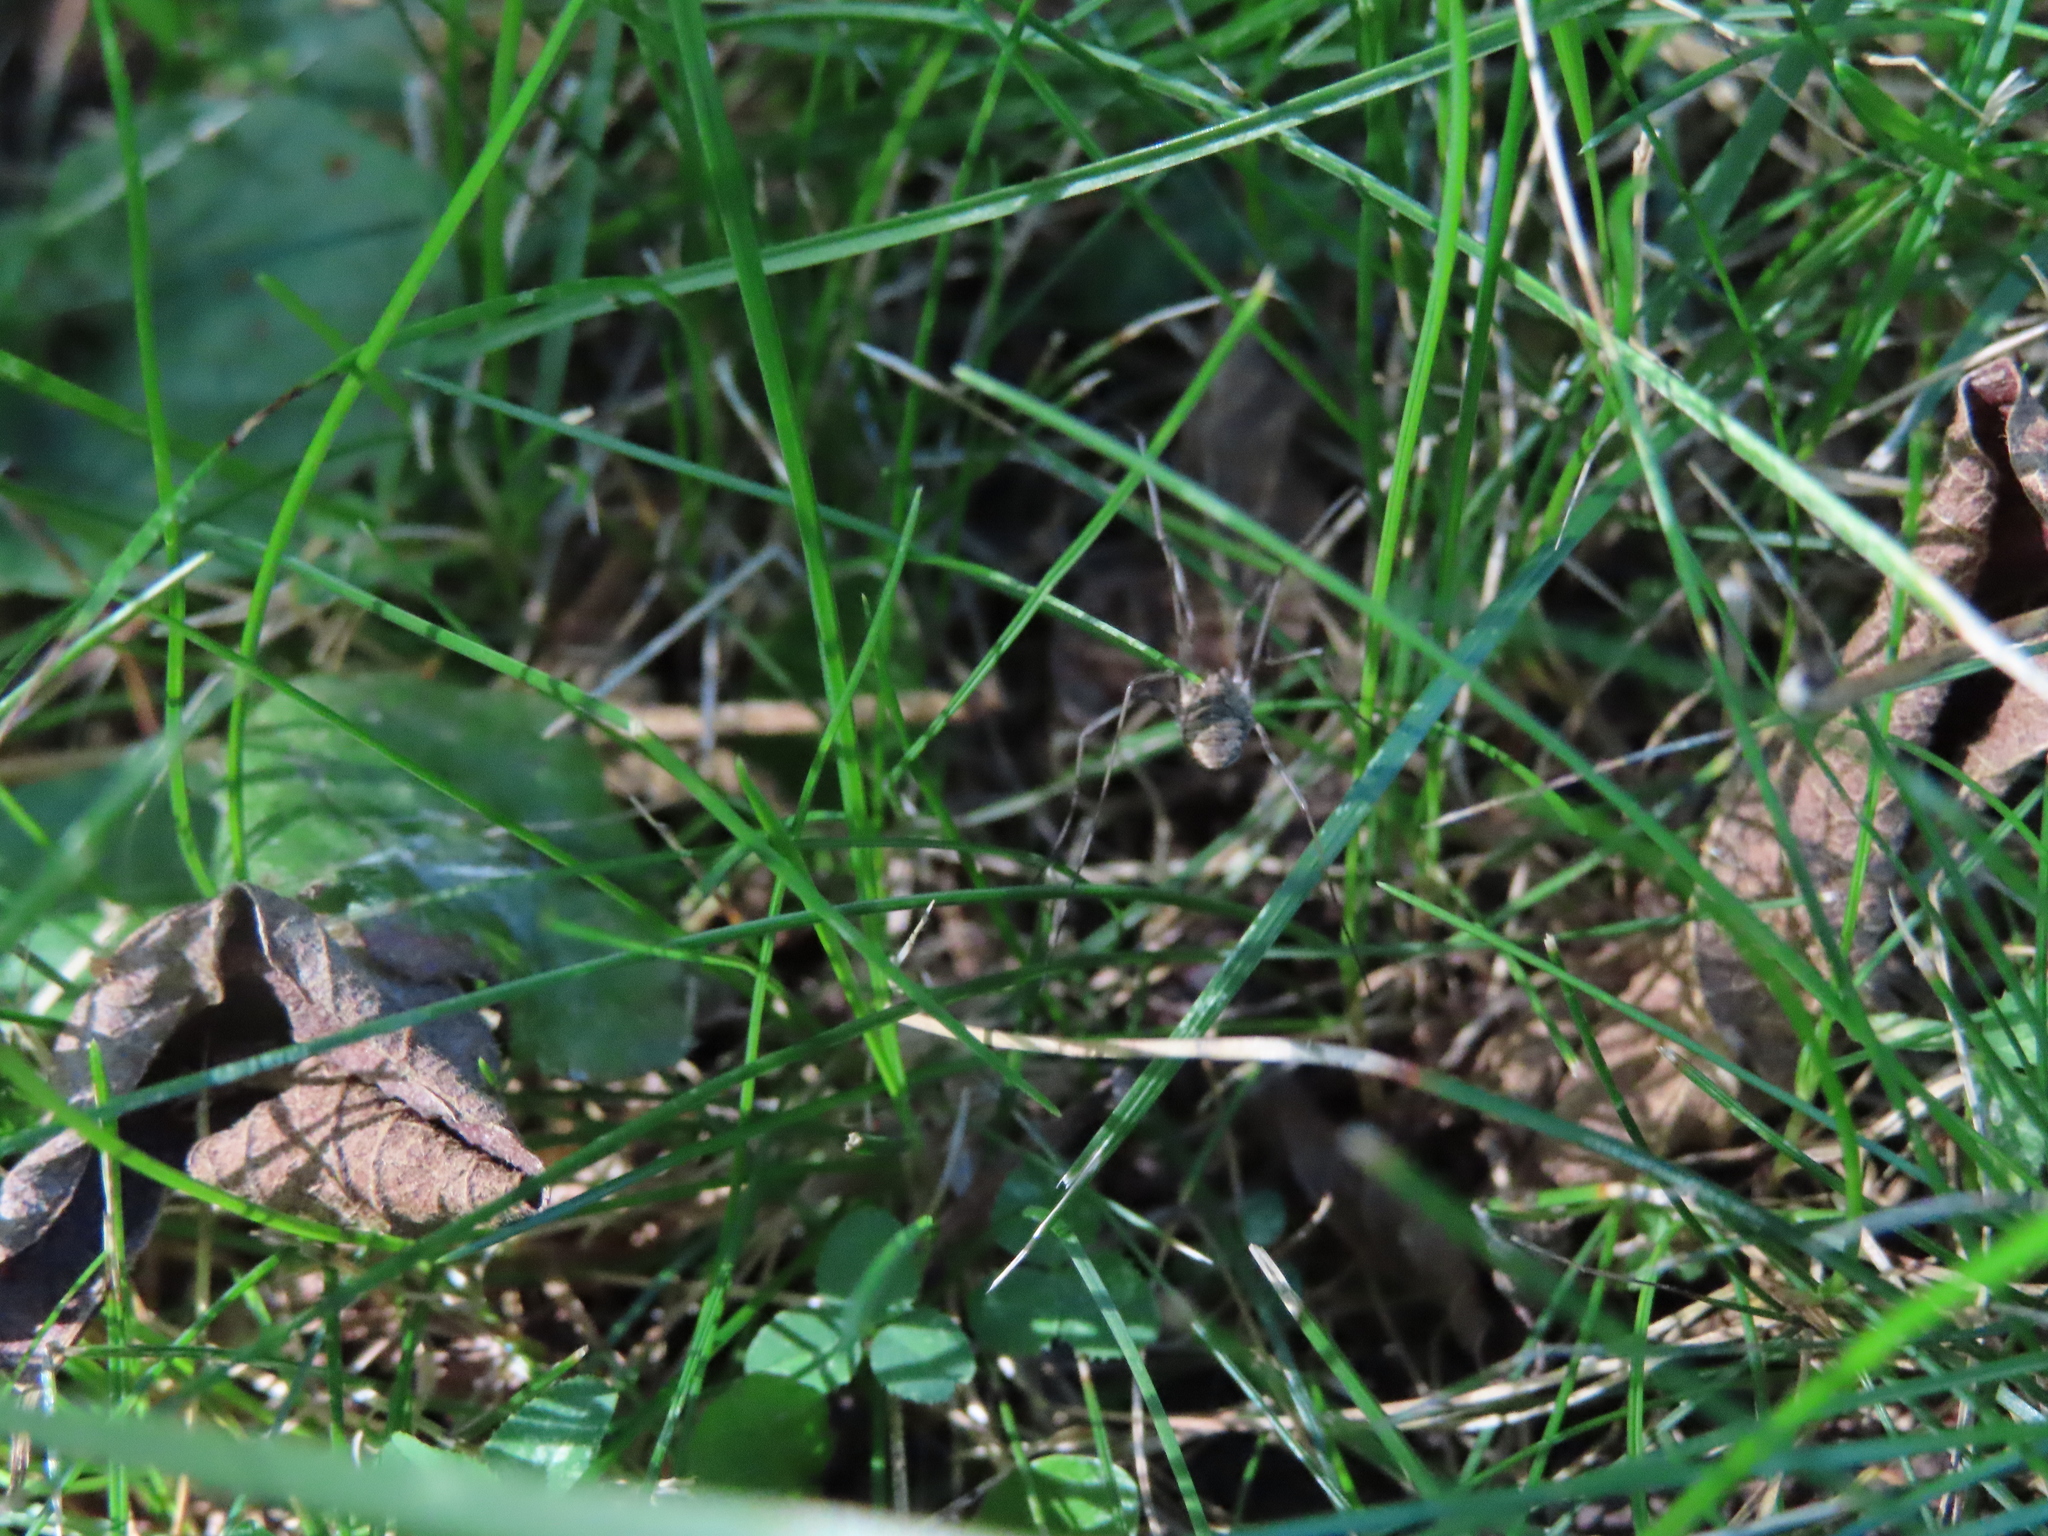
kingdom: Animalia
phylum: Arthropoda
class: Arachnida
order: Opiliones
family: Phalangiidae
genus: Phalangium
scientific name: Phalangium opilio
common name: Daddy longleg
